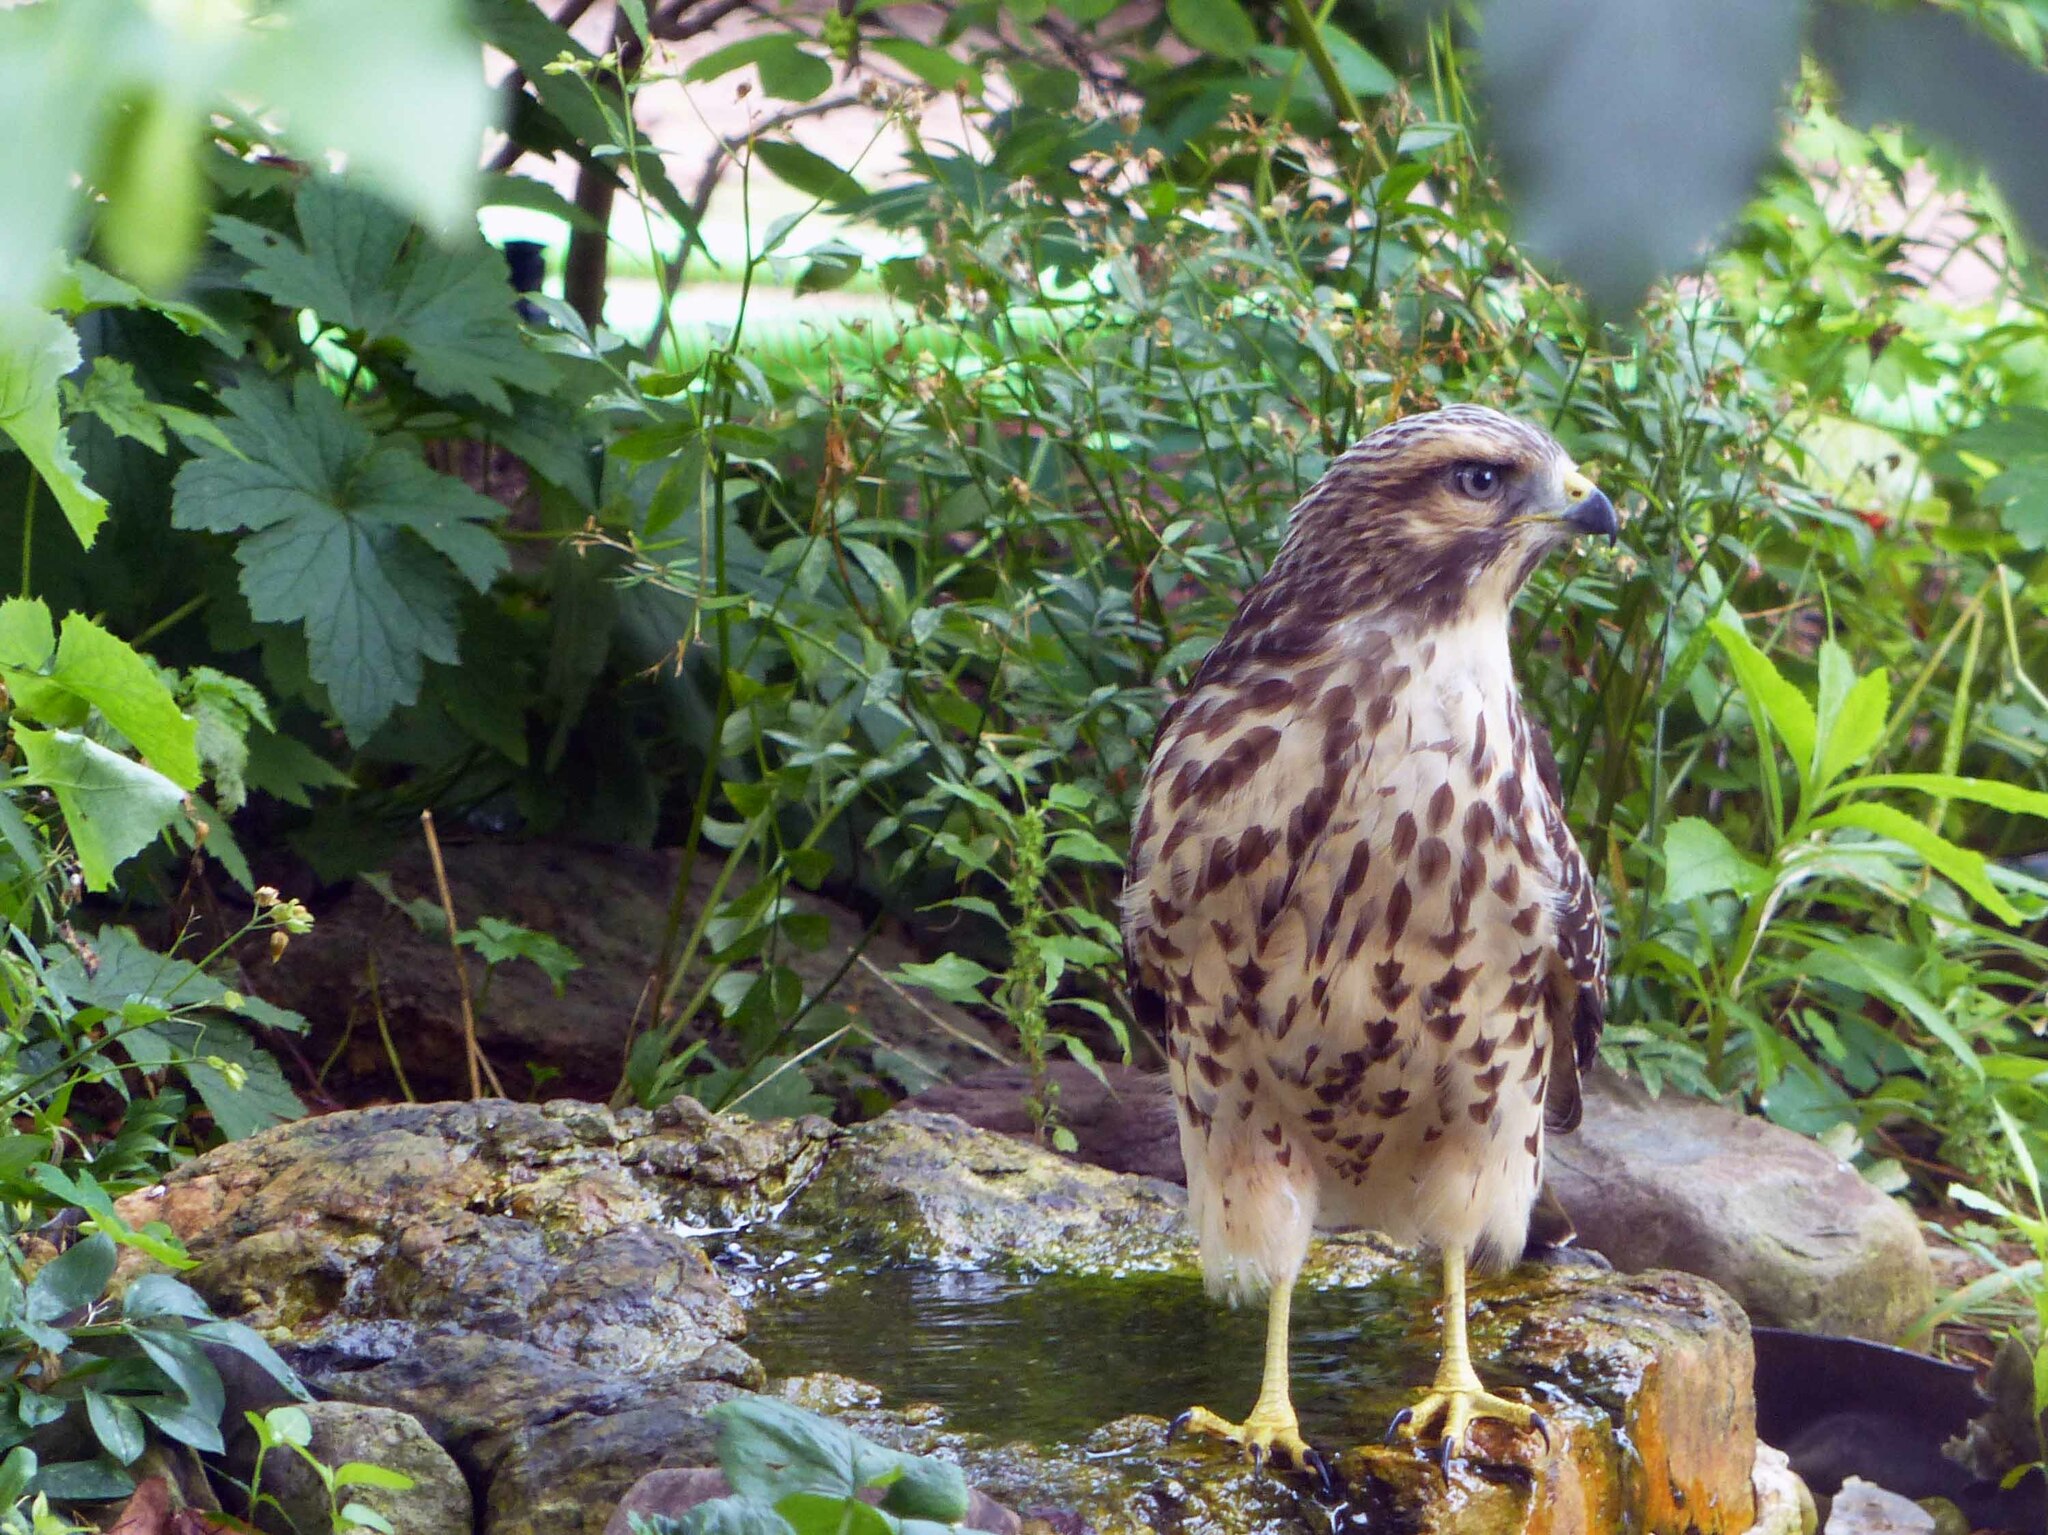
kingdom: Animalia
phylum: Chordata
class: Aves
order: Accipitriformes
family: Accipitridae
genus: Buteo
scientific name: Buteo lineatus
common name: Red-shouldered hawk
